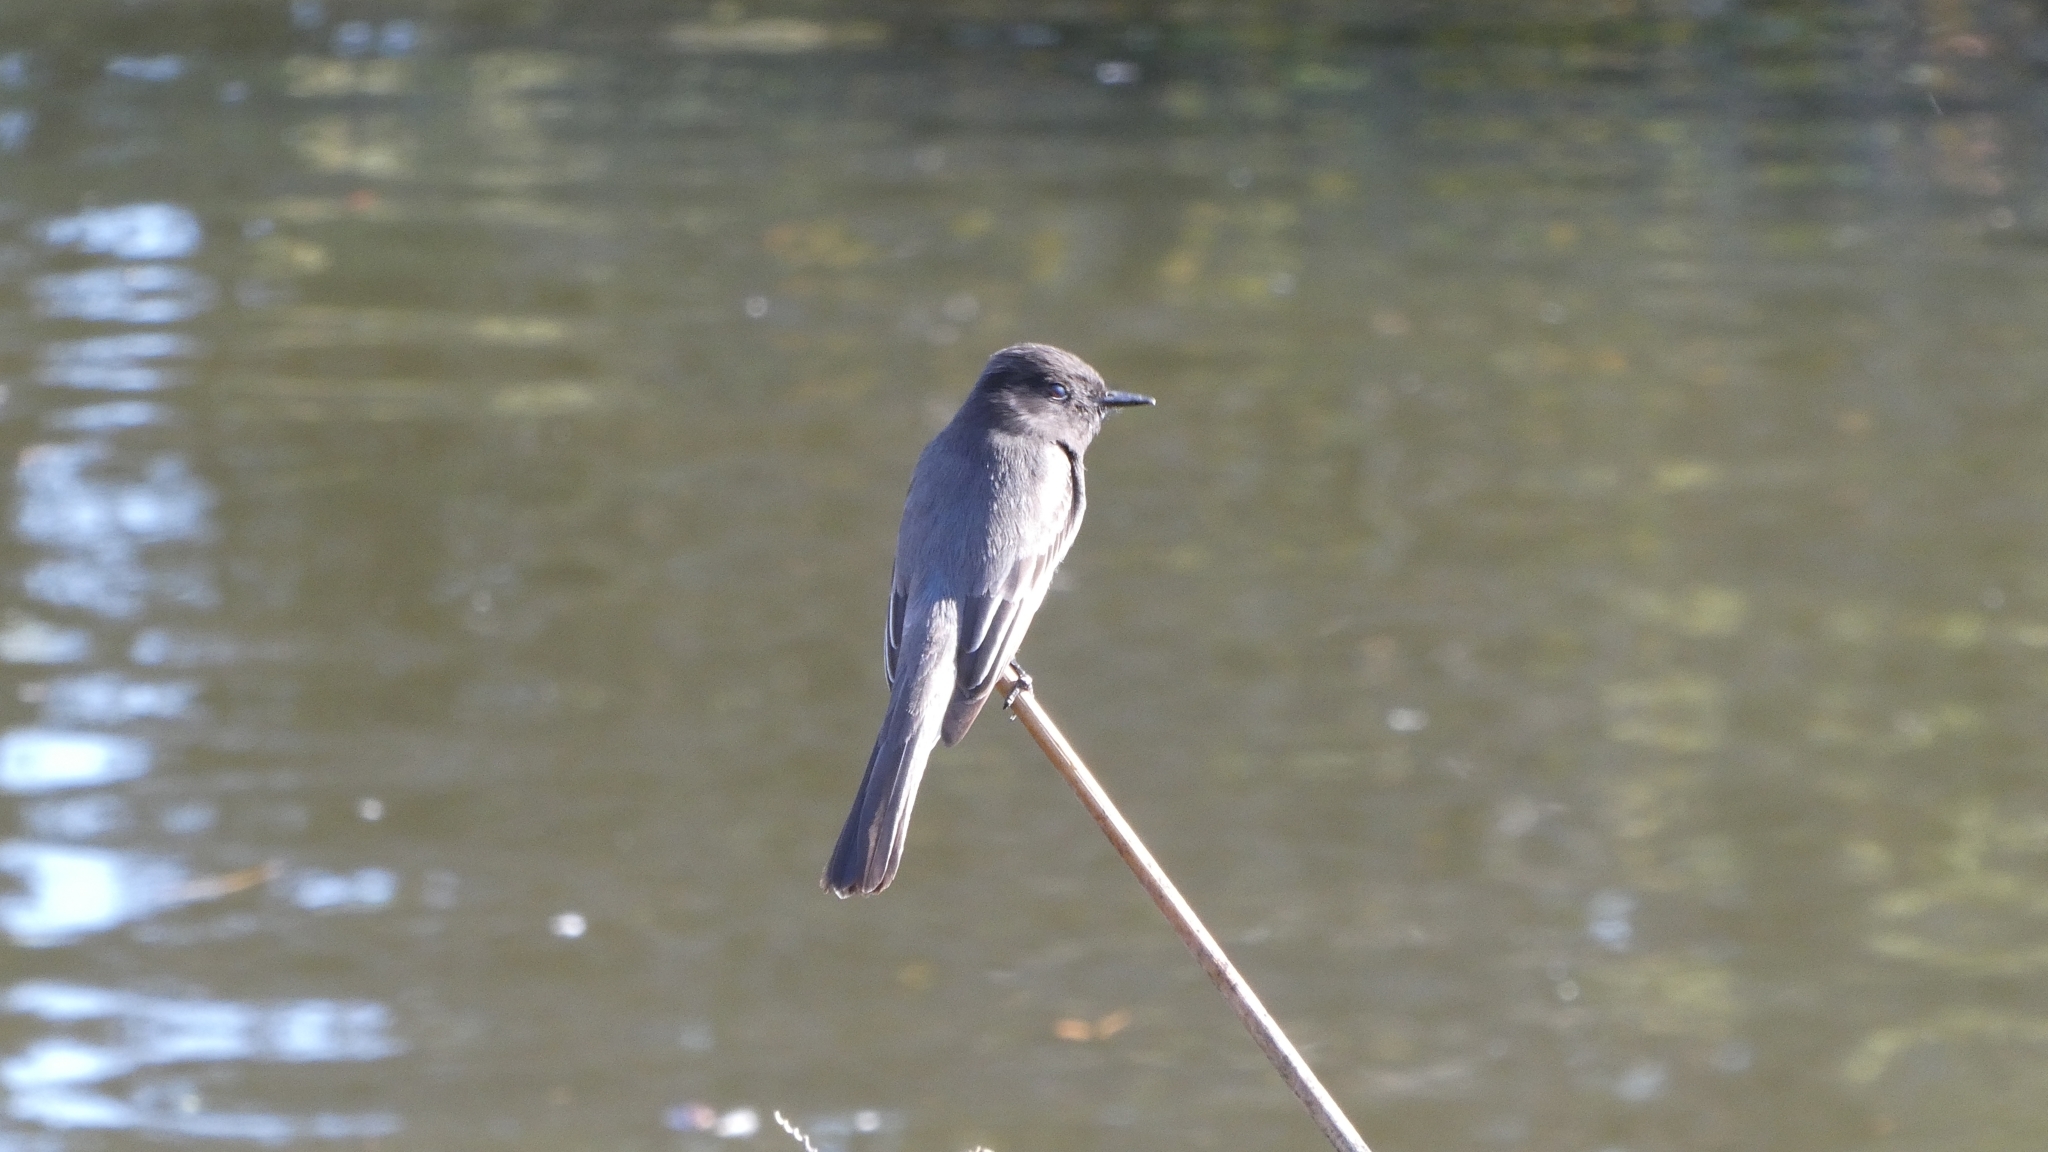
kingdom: Animalia
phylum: Chordata
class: Aves
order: Passeriformes
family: Tyrannidae
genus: Sayornis
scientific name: Sayornis nigricans
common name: Black phoebe
